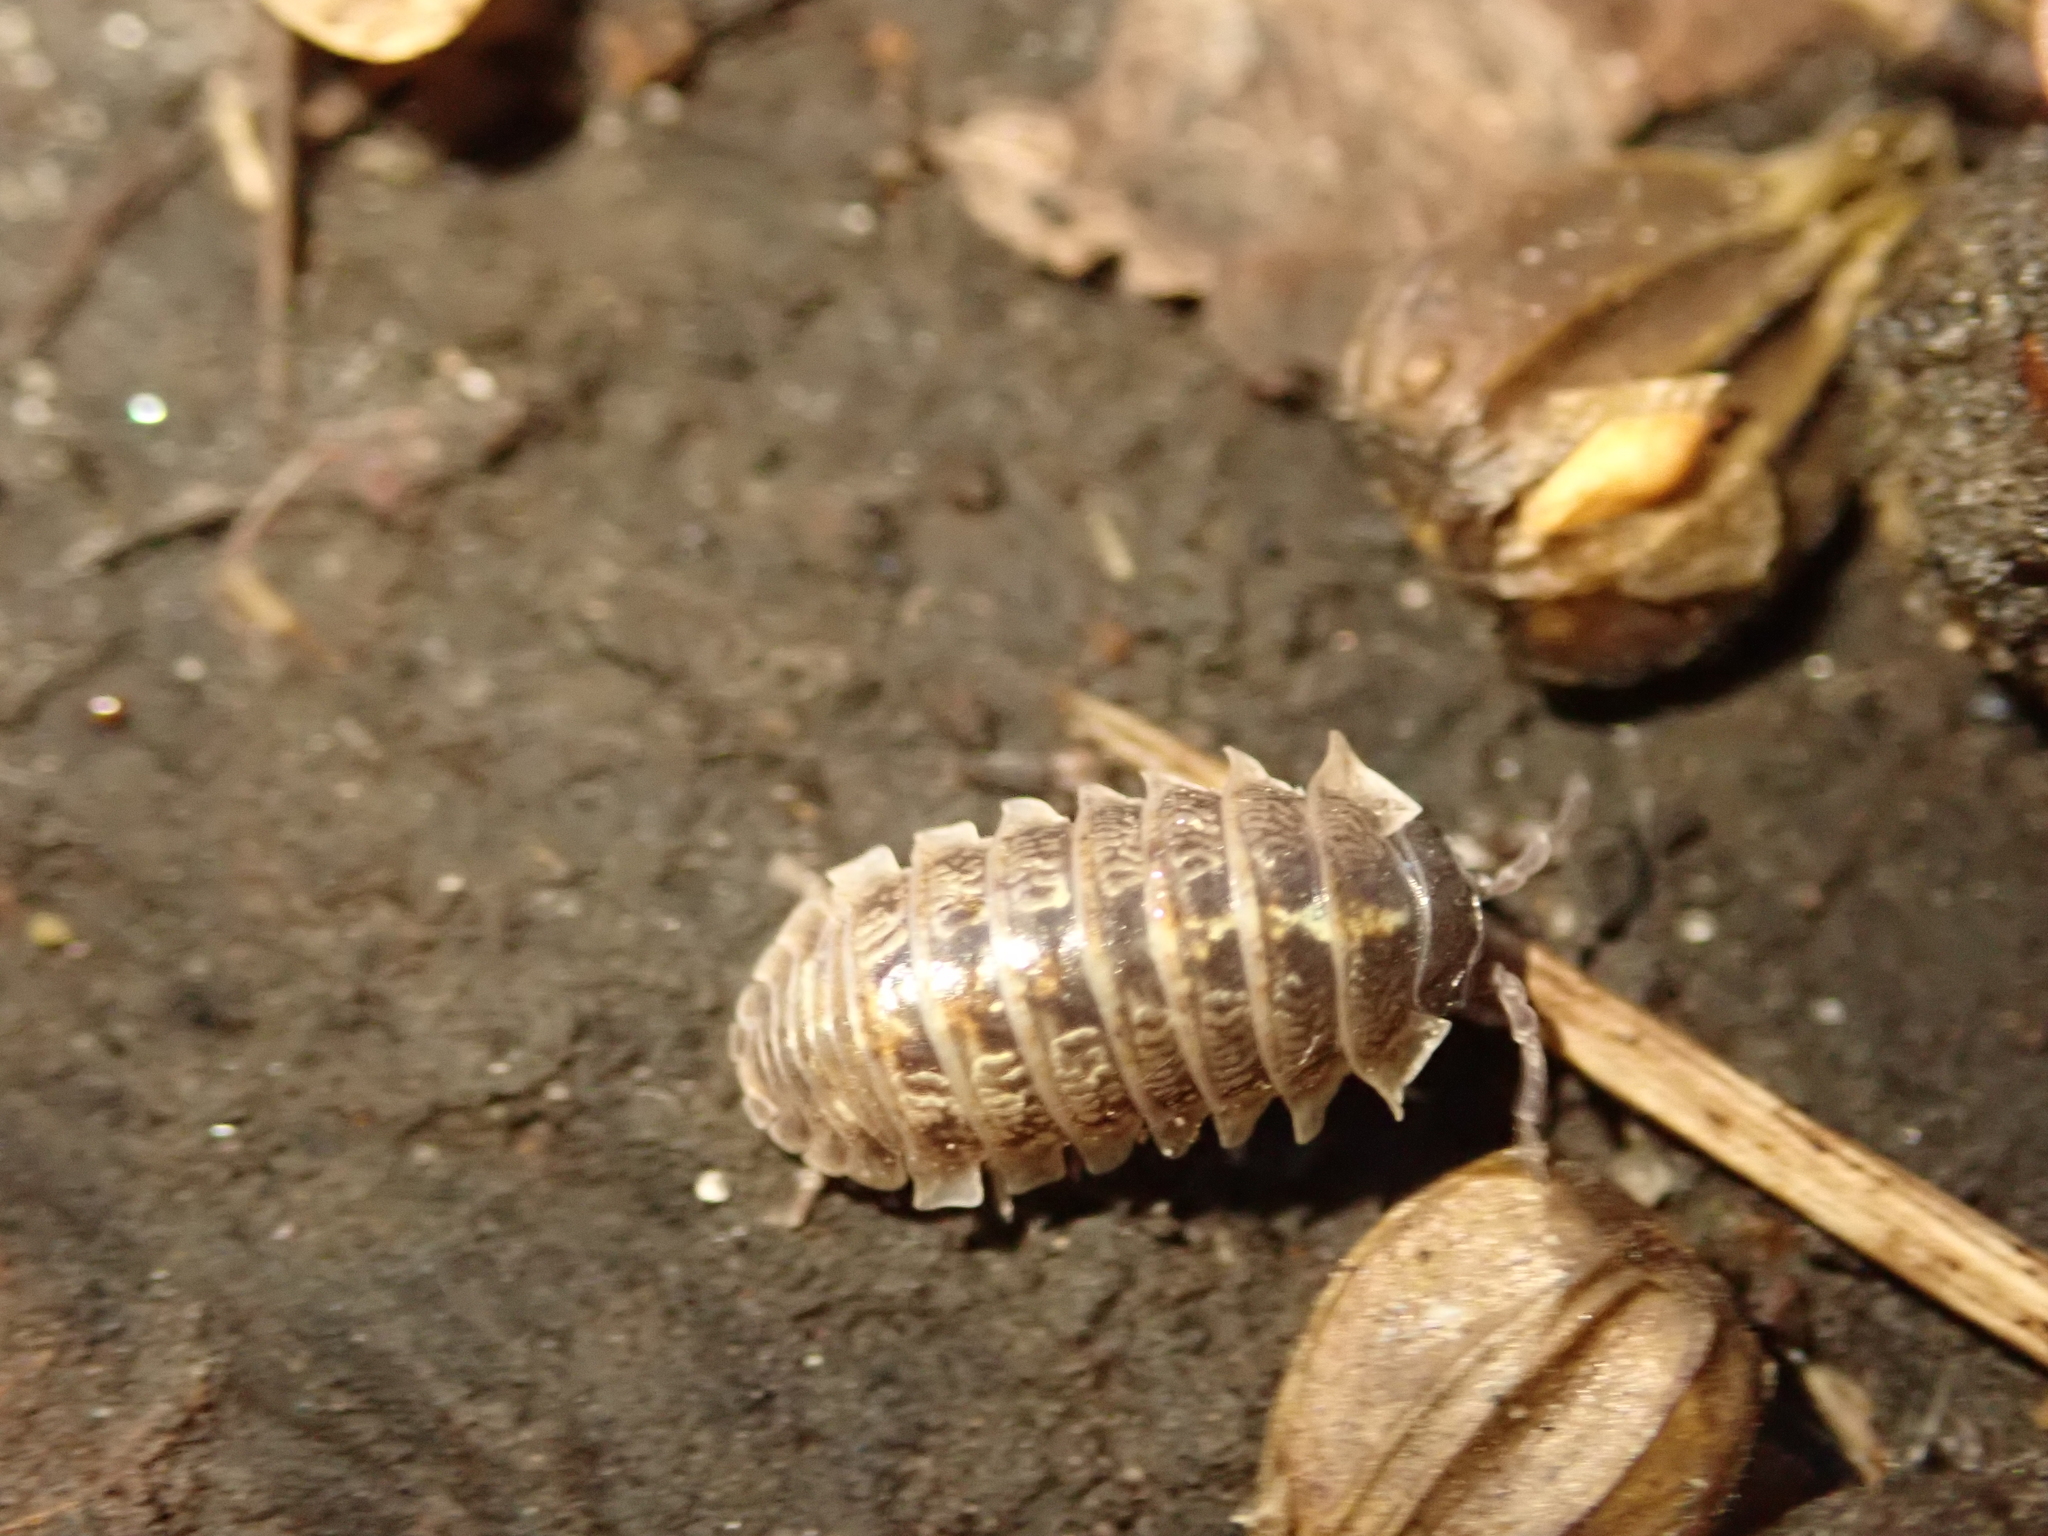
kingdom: Animalia
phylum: Arthropoda
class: Malacostraca
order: Isopoda
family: Armadillidiidae
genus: Armadillidium
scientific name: Armadillidium vulgare
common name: Common pill woodlouse
